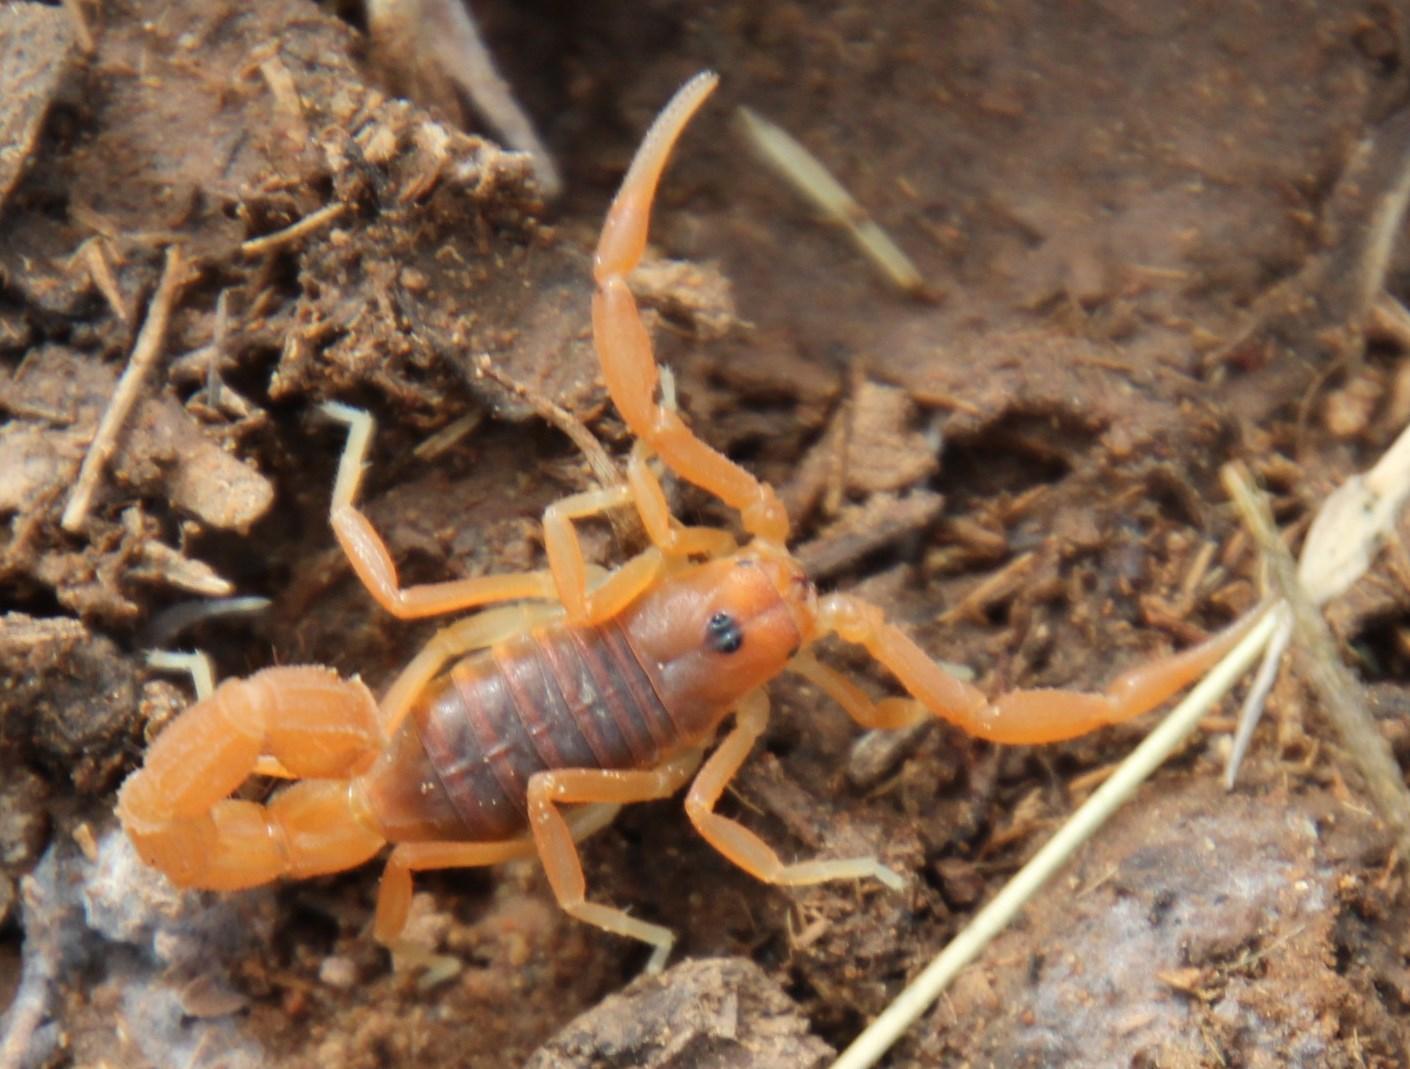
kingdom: Animalia
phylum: Arthropoda
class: Arachnida
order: Scorpiones
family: Buthidae
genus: Parabuthus
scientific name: Parabuthus planicauda
